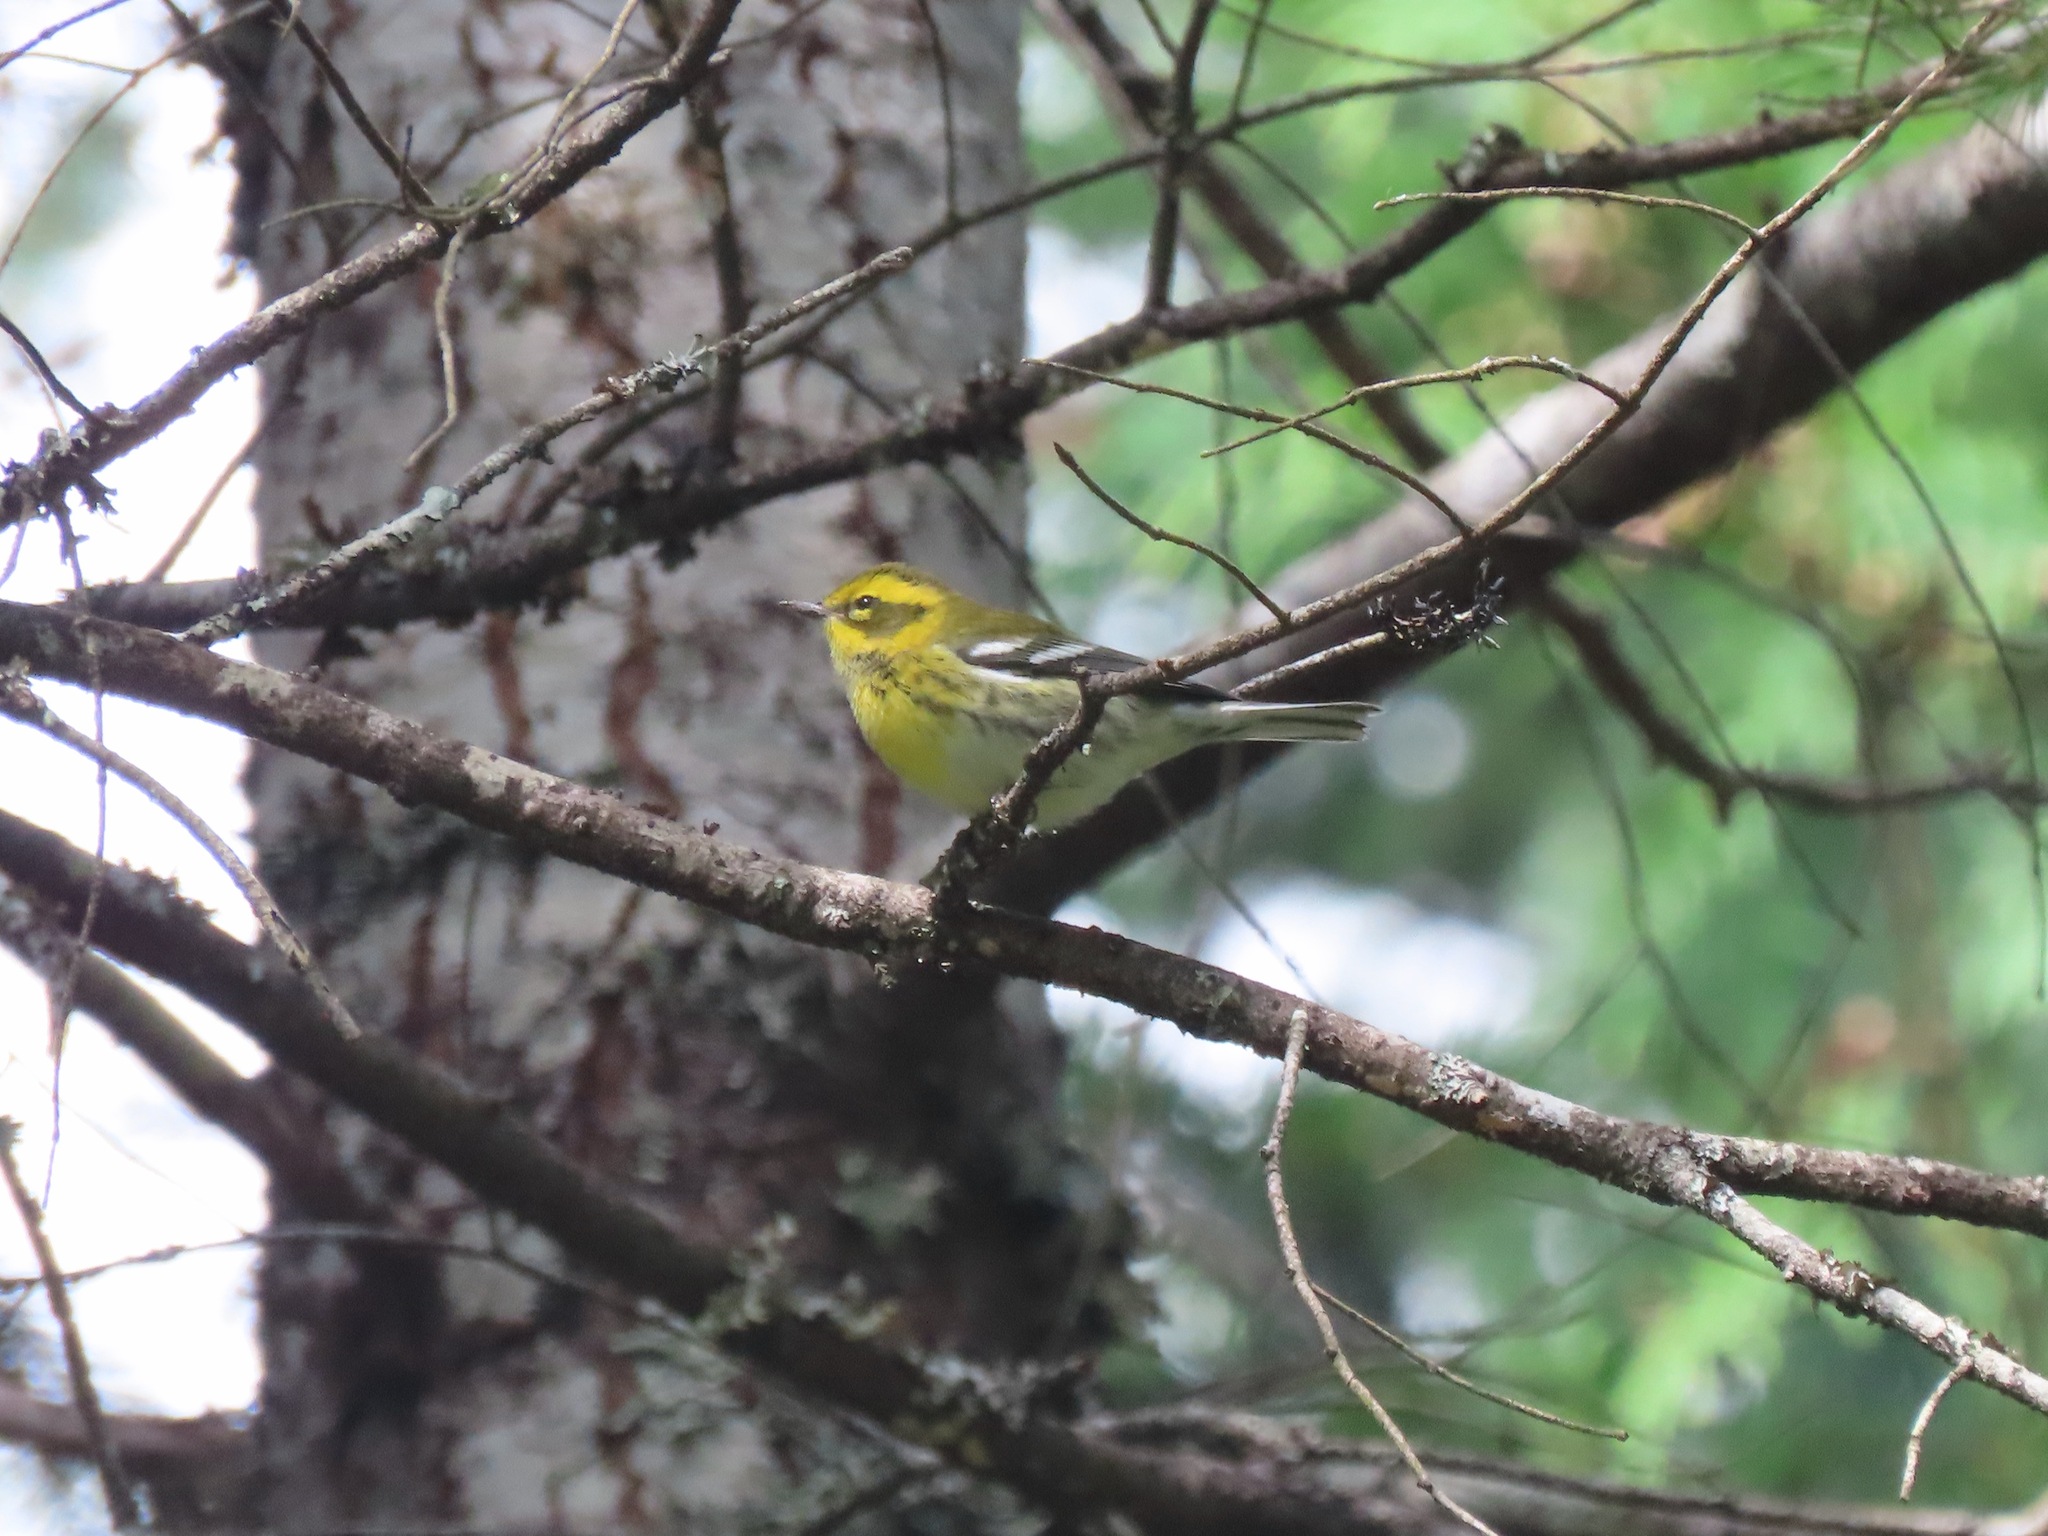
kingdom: Animalia
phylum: Chordata
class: Aves
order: Passeriformes
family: Parulidae
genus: Setophaga
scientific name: Setophaga townsendi
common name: Townsend's warbler
